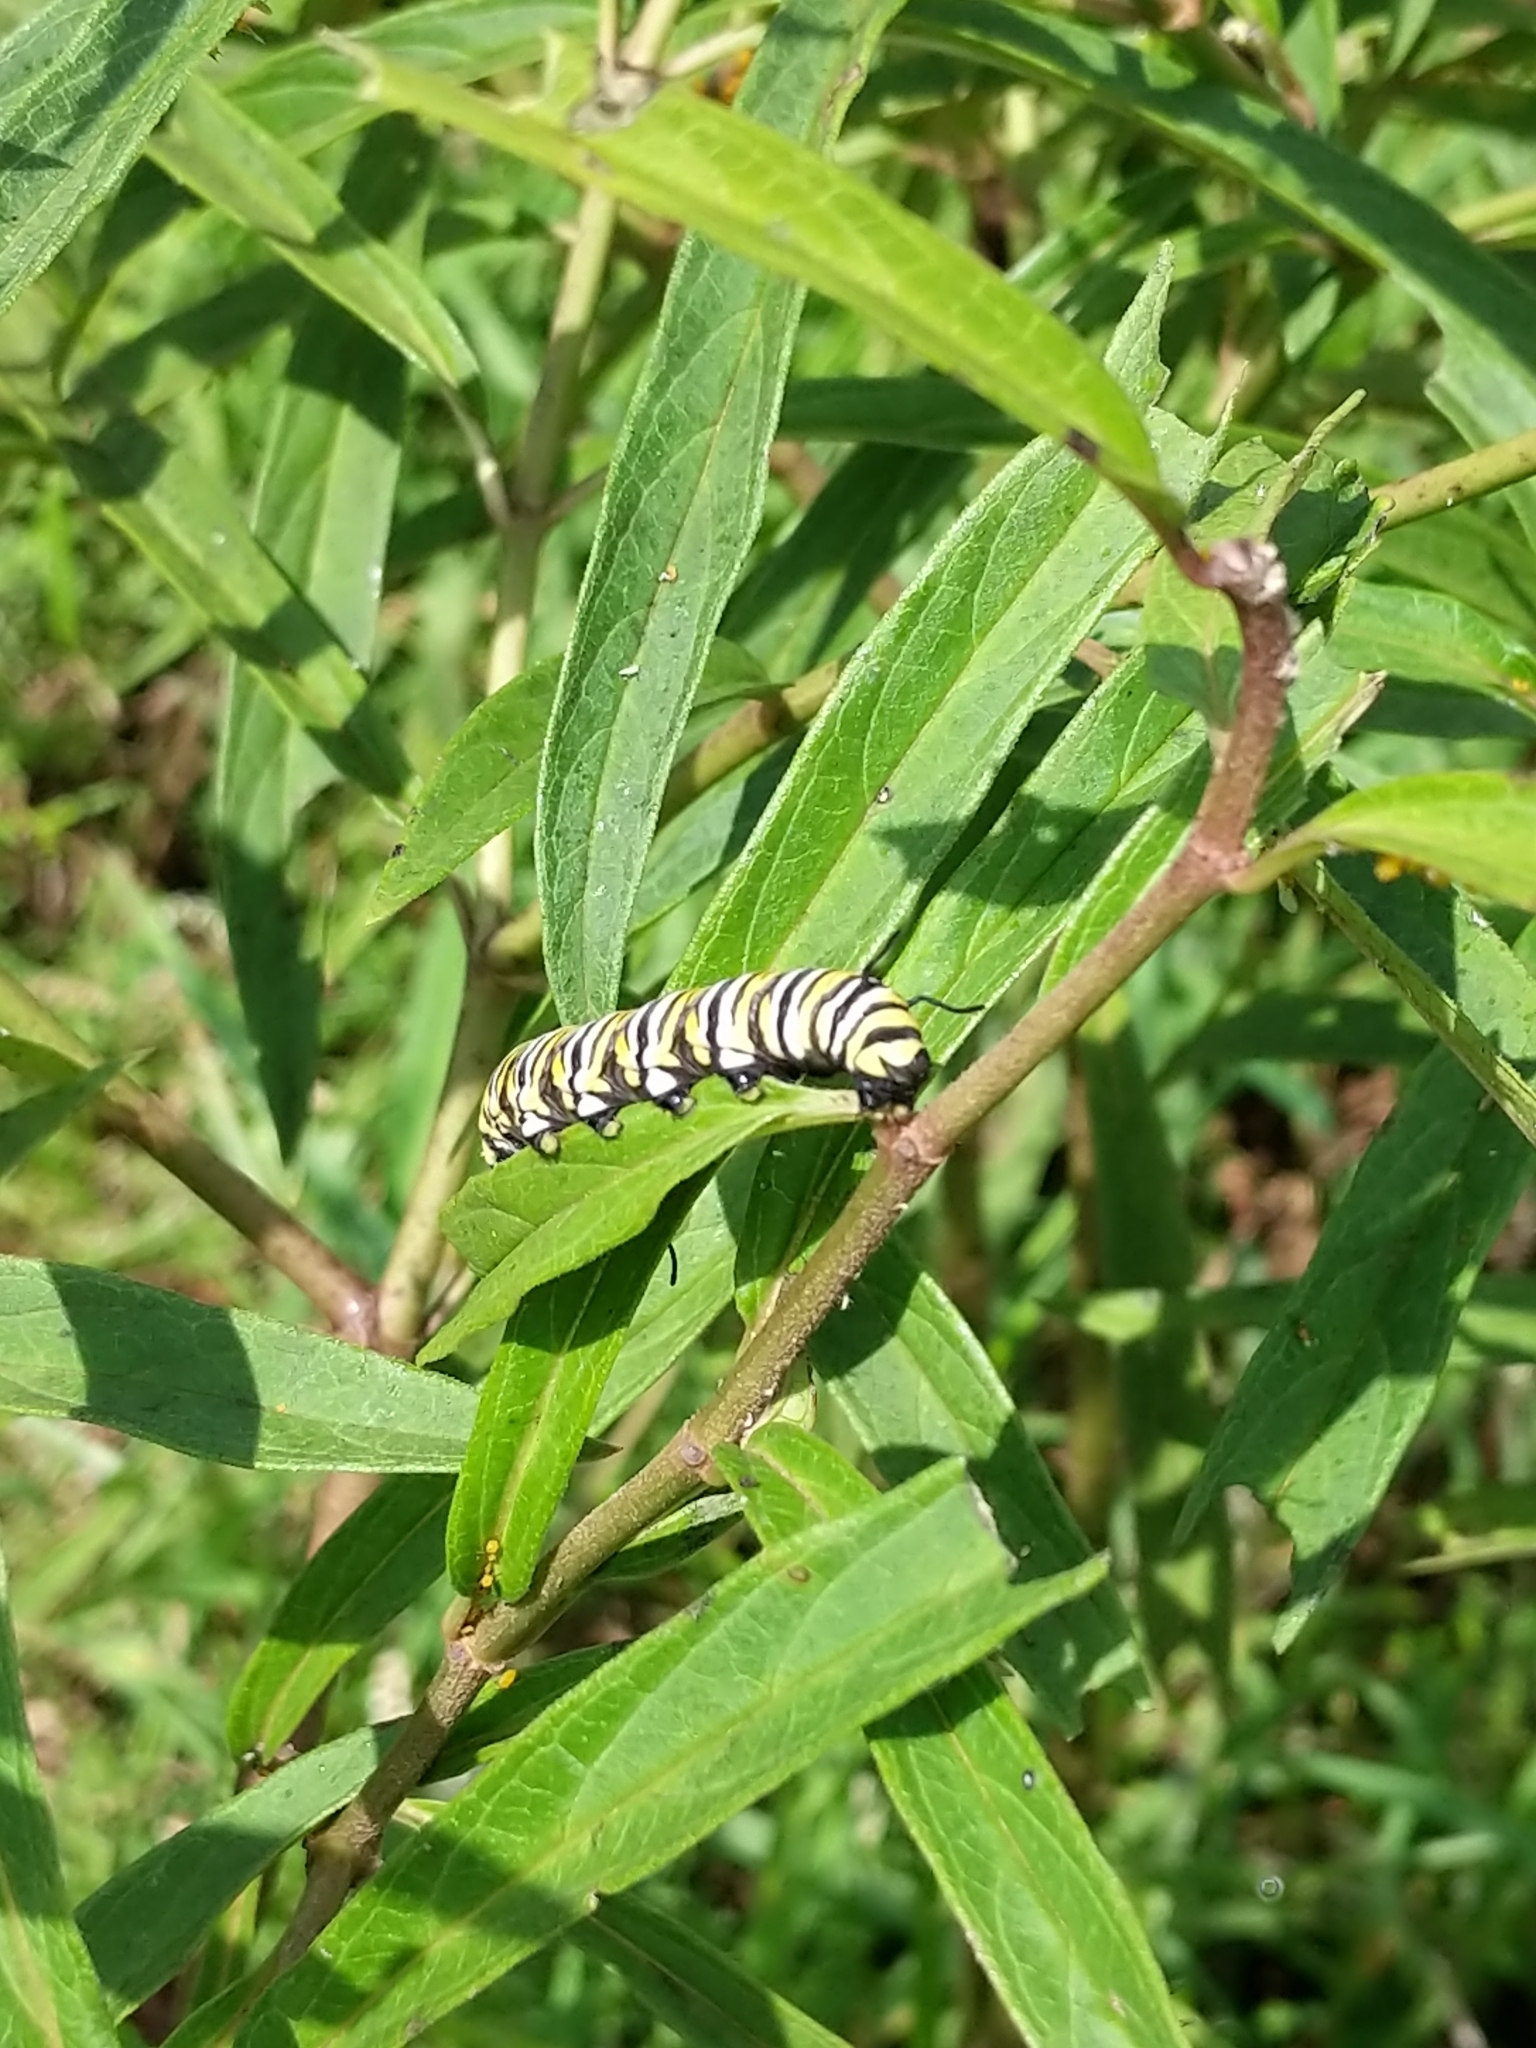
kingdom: Animalia
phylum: Arthropoda
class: Insecta
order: Lepidoptera
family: Nymphalidae
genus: Danaus
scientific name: Danaus plexippus
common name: Monarch
